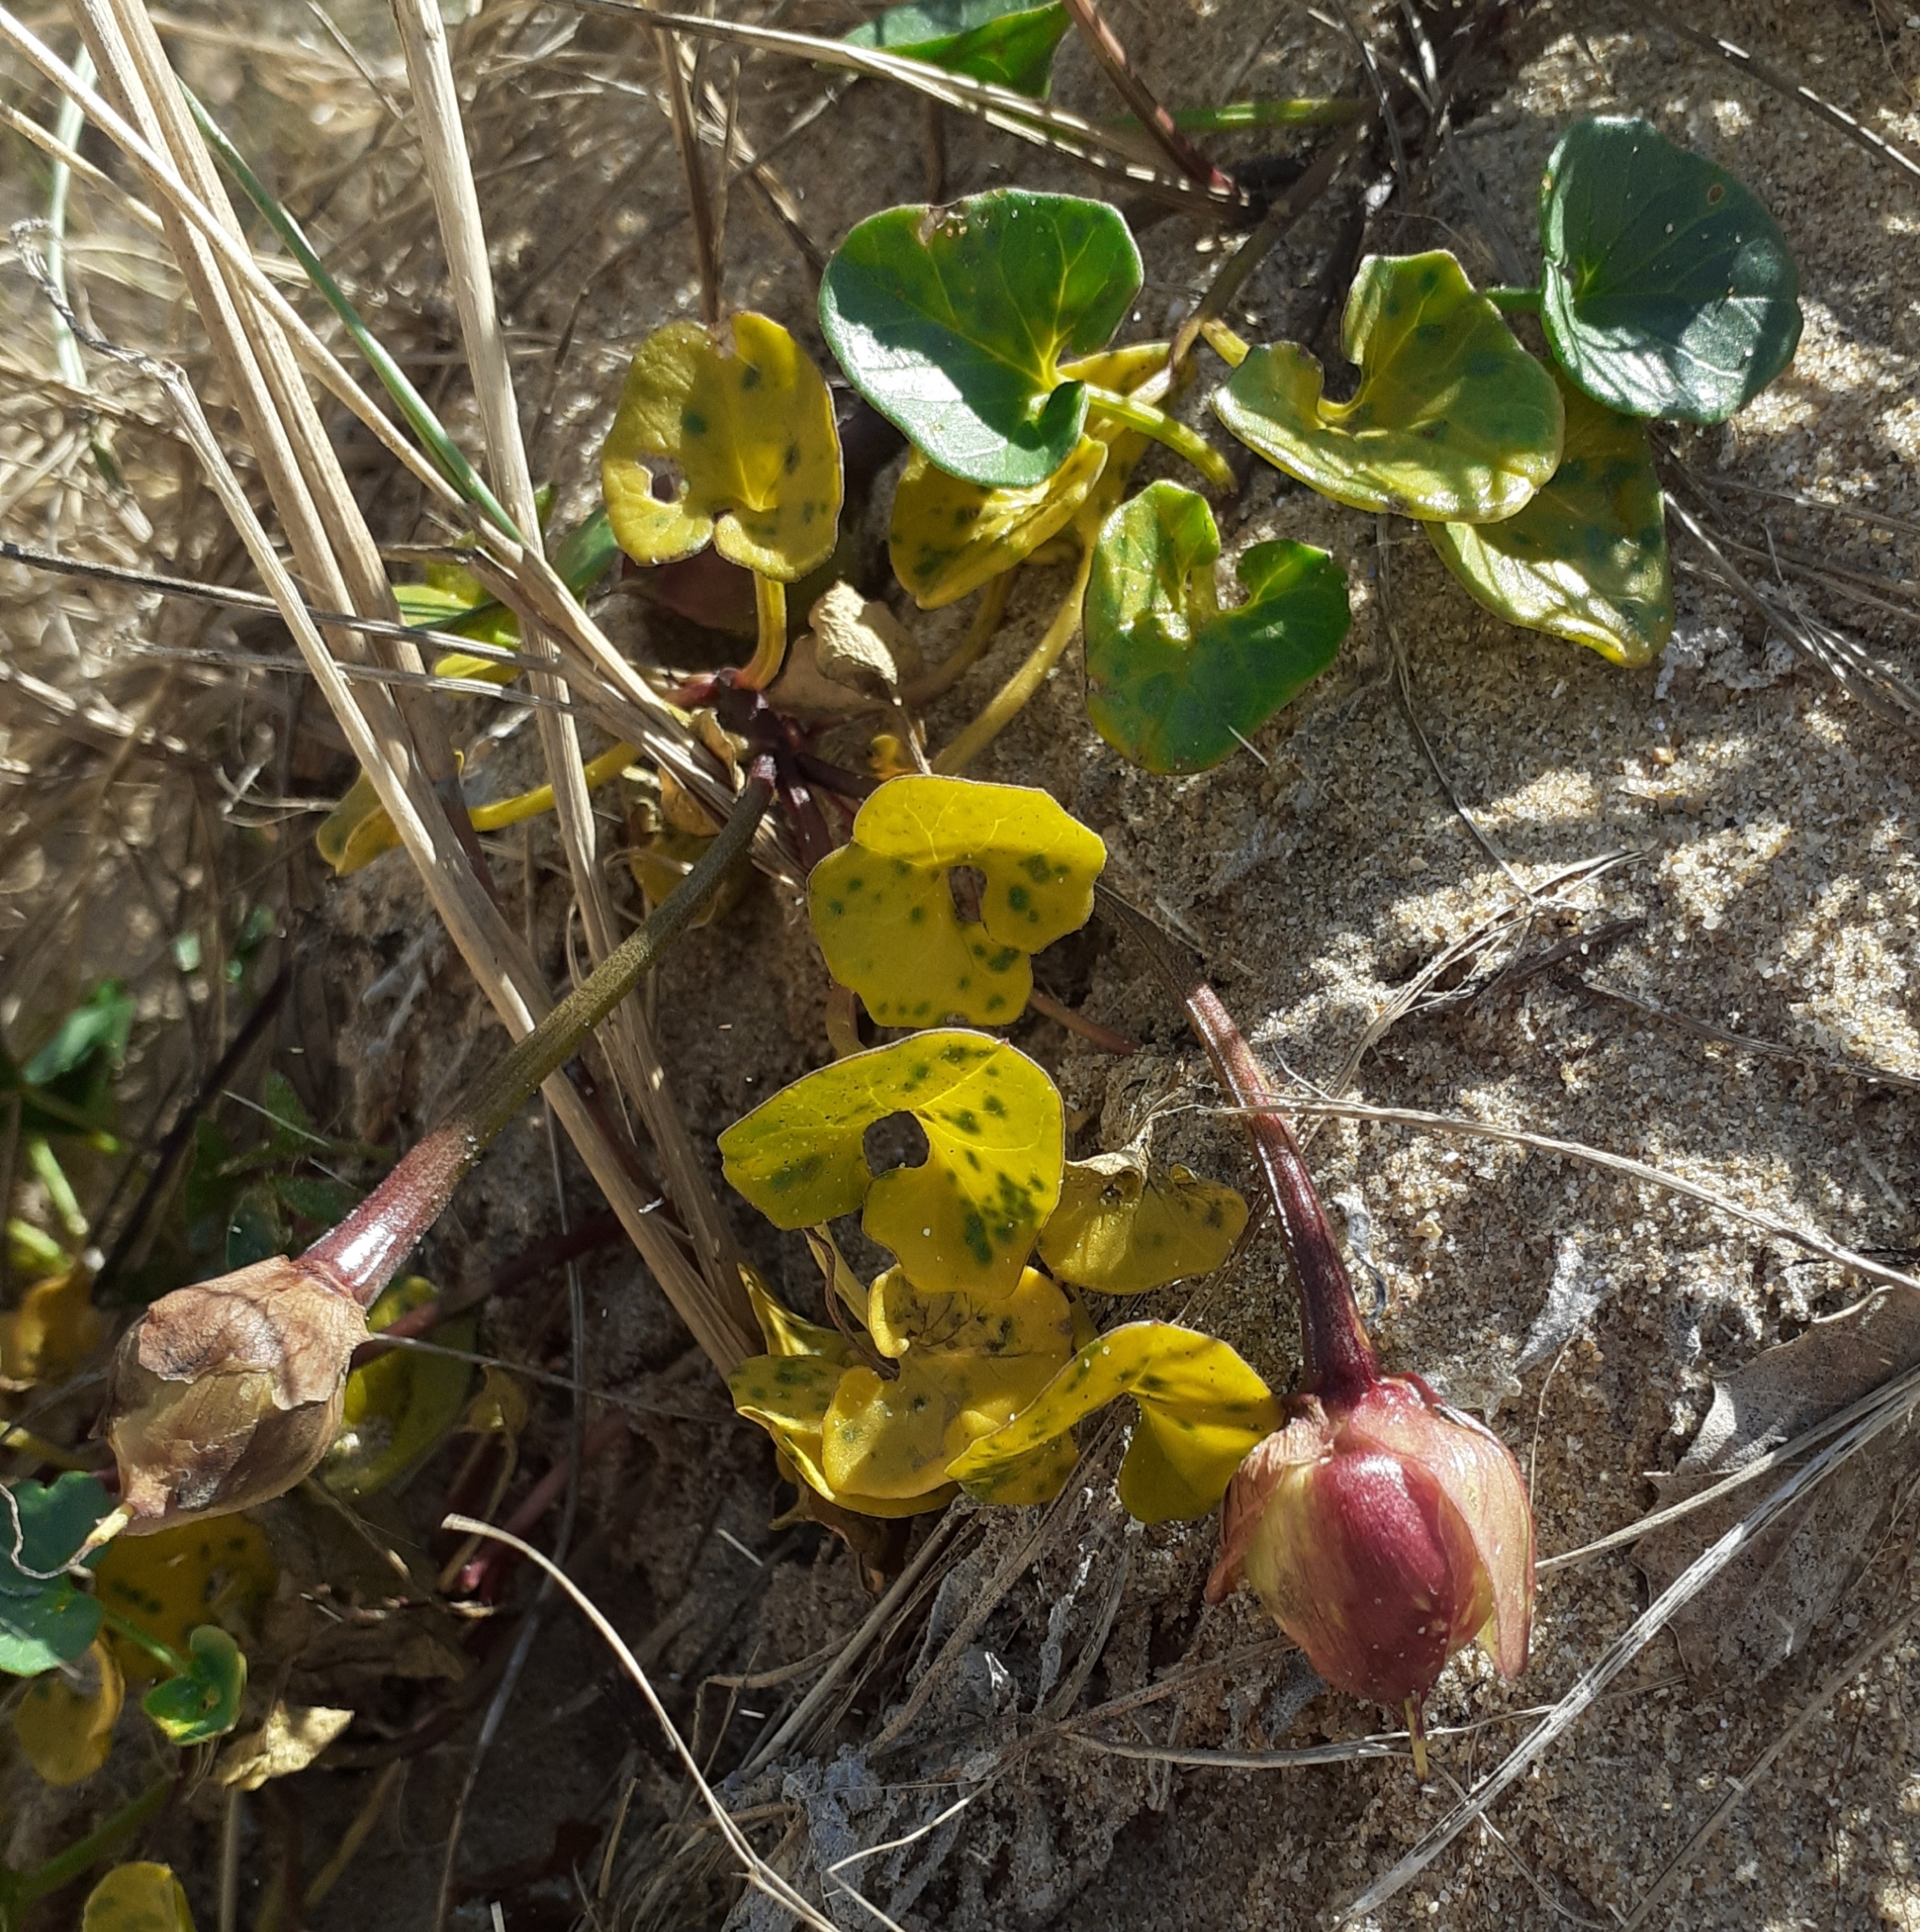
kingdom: Plantae
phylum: Tracheophyta
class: Magnoliopsida
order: Solanales
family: Convolvulaceae
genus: Calystegia
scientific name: Calystegia soldanella
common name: Sea bindweed
